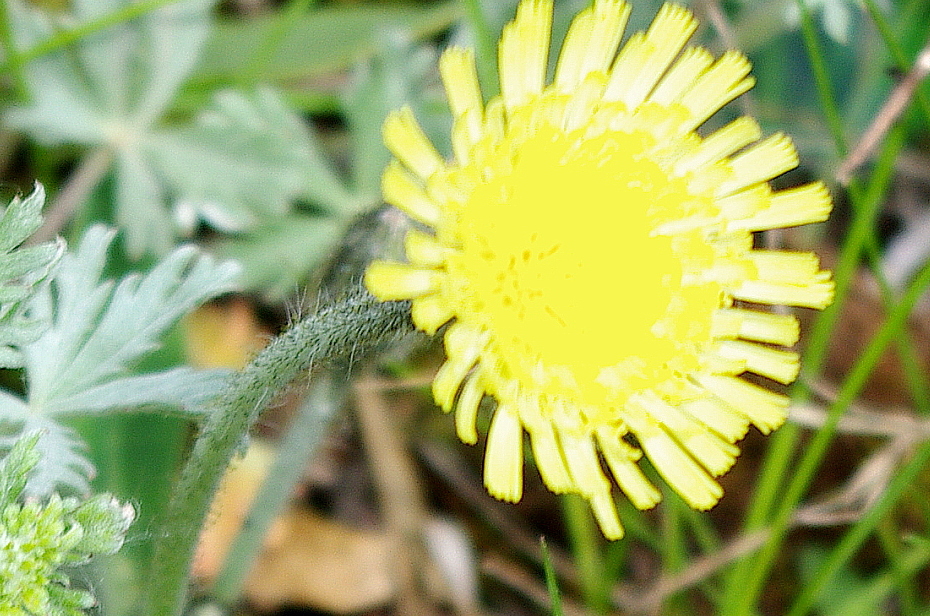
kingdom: Plantae
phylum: Tracheophyta
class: Magnoliopsida
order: Asterales
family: Asteraceae
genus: Pilosella
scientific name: Pilosella officinarum
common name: Mouse-ear hawkweed
